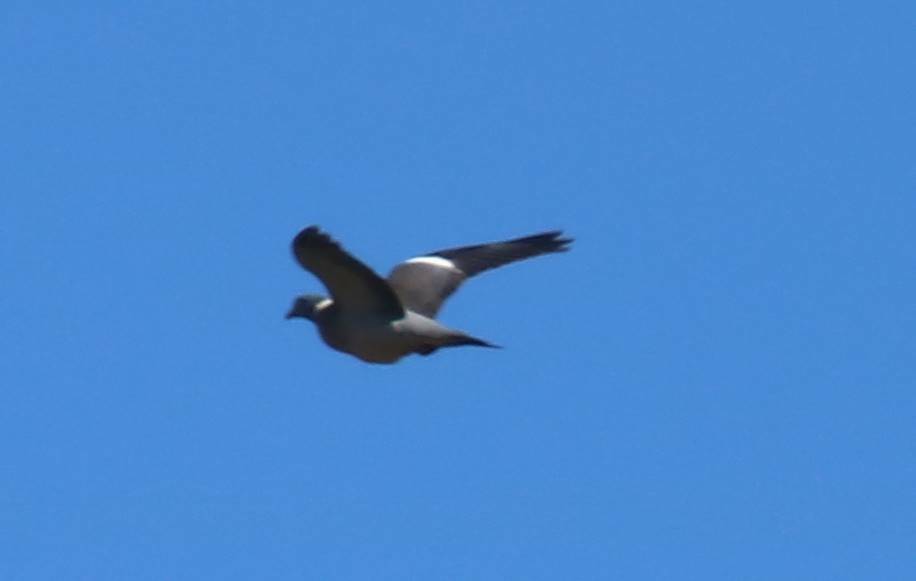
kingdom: Animalia
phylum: Chordata
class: Aves
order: Columbiformes
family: Columbidae
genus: Columba
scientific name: Columba palumbus
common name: Common wood pigeon
